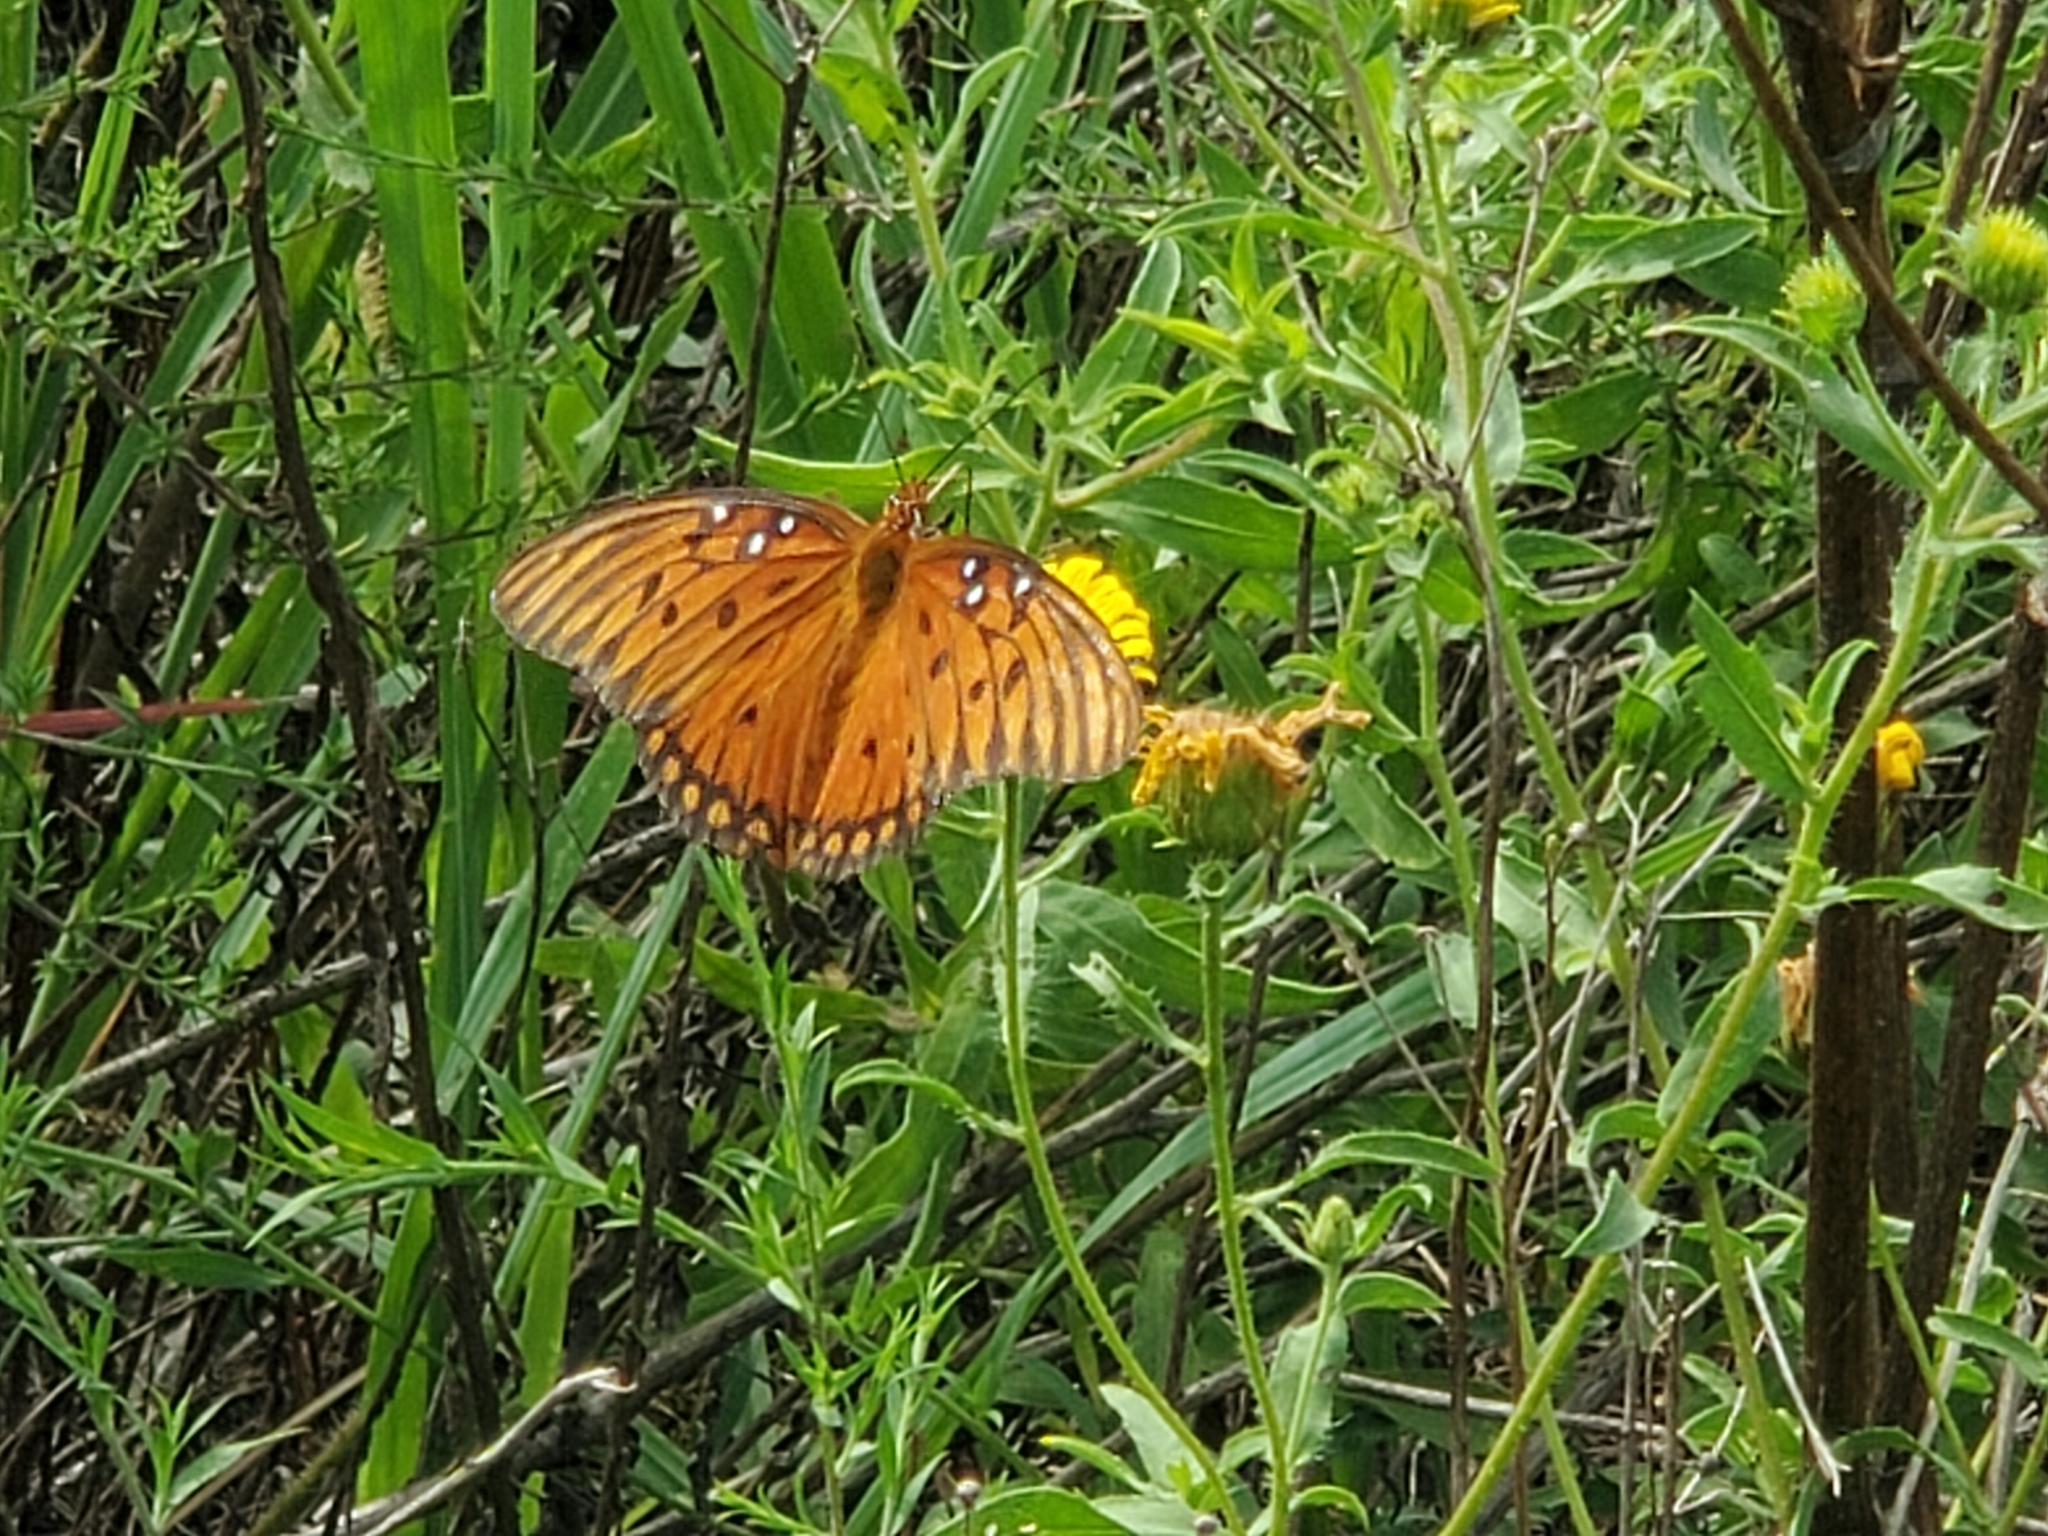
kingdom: Animalia
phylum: Arthropoda
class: Insecta
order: Lepidoptera
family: Nymphalidae
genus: Dione
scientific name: Dione vanillae
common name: Gulf fritillary
